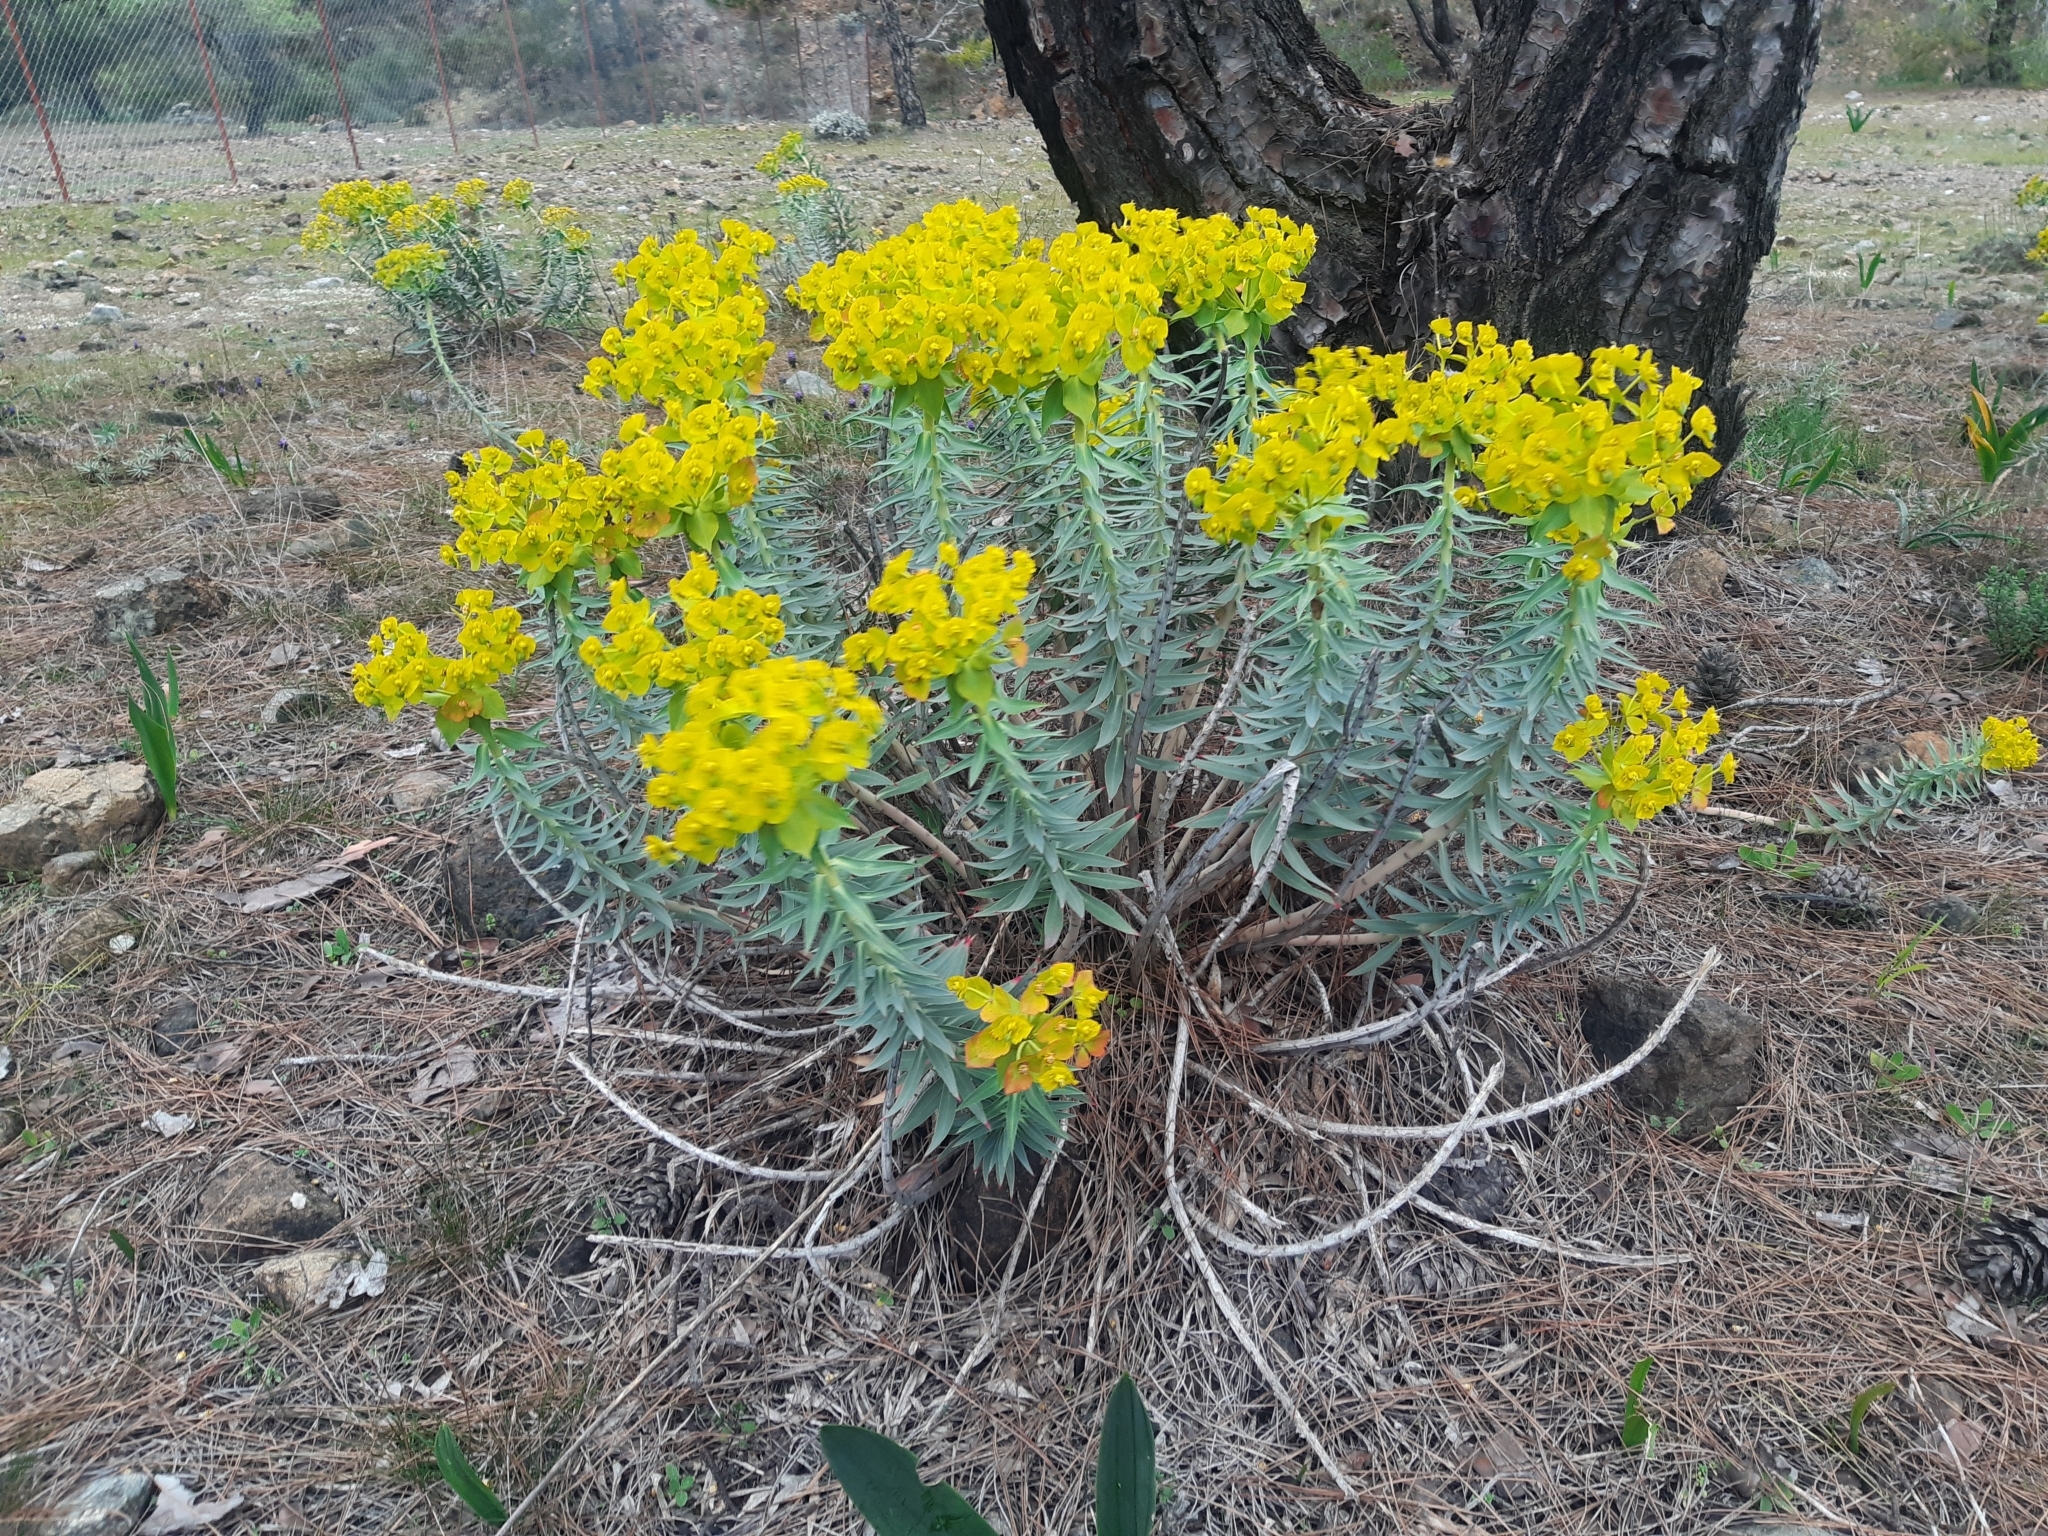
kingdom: Plantae
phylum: Tracheophyta
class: Magnoliopsida
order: Malpighiales
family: Euphorbiaceae
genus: Euphorbia
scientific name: Euphorbia rigida
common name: Upright myrtle spurge
